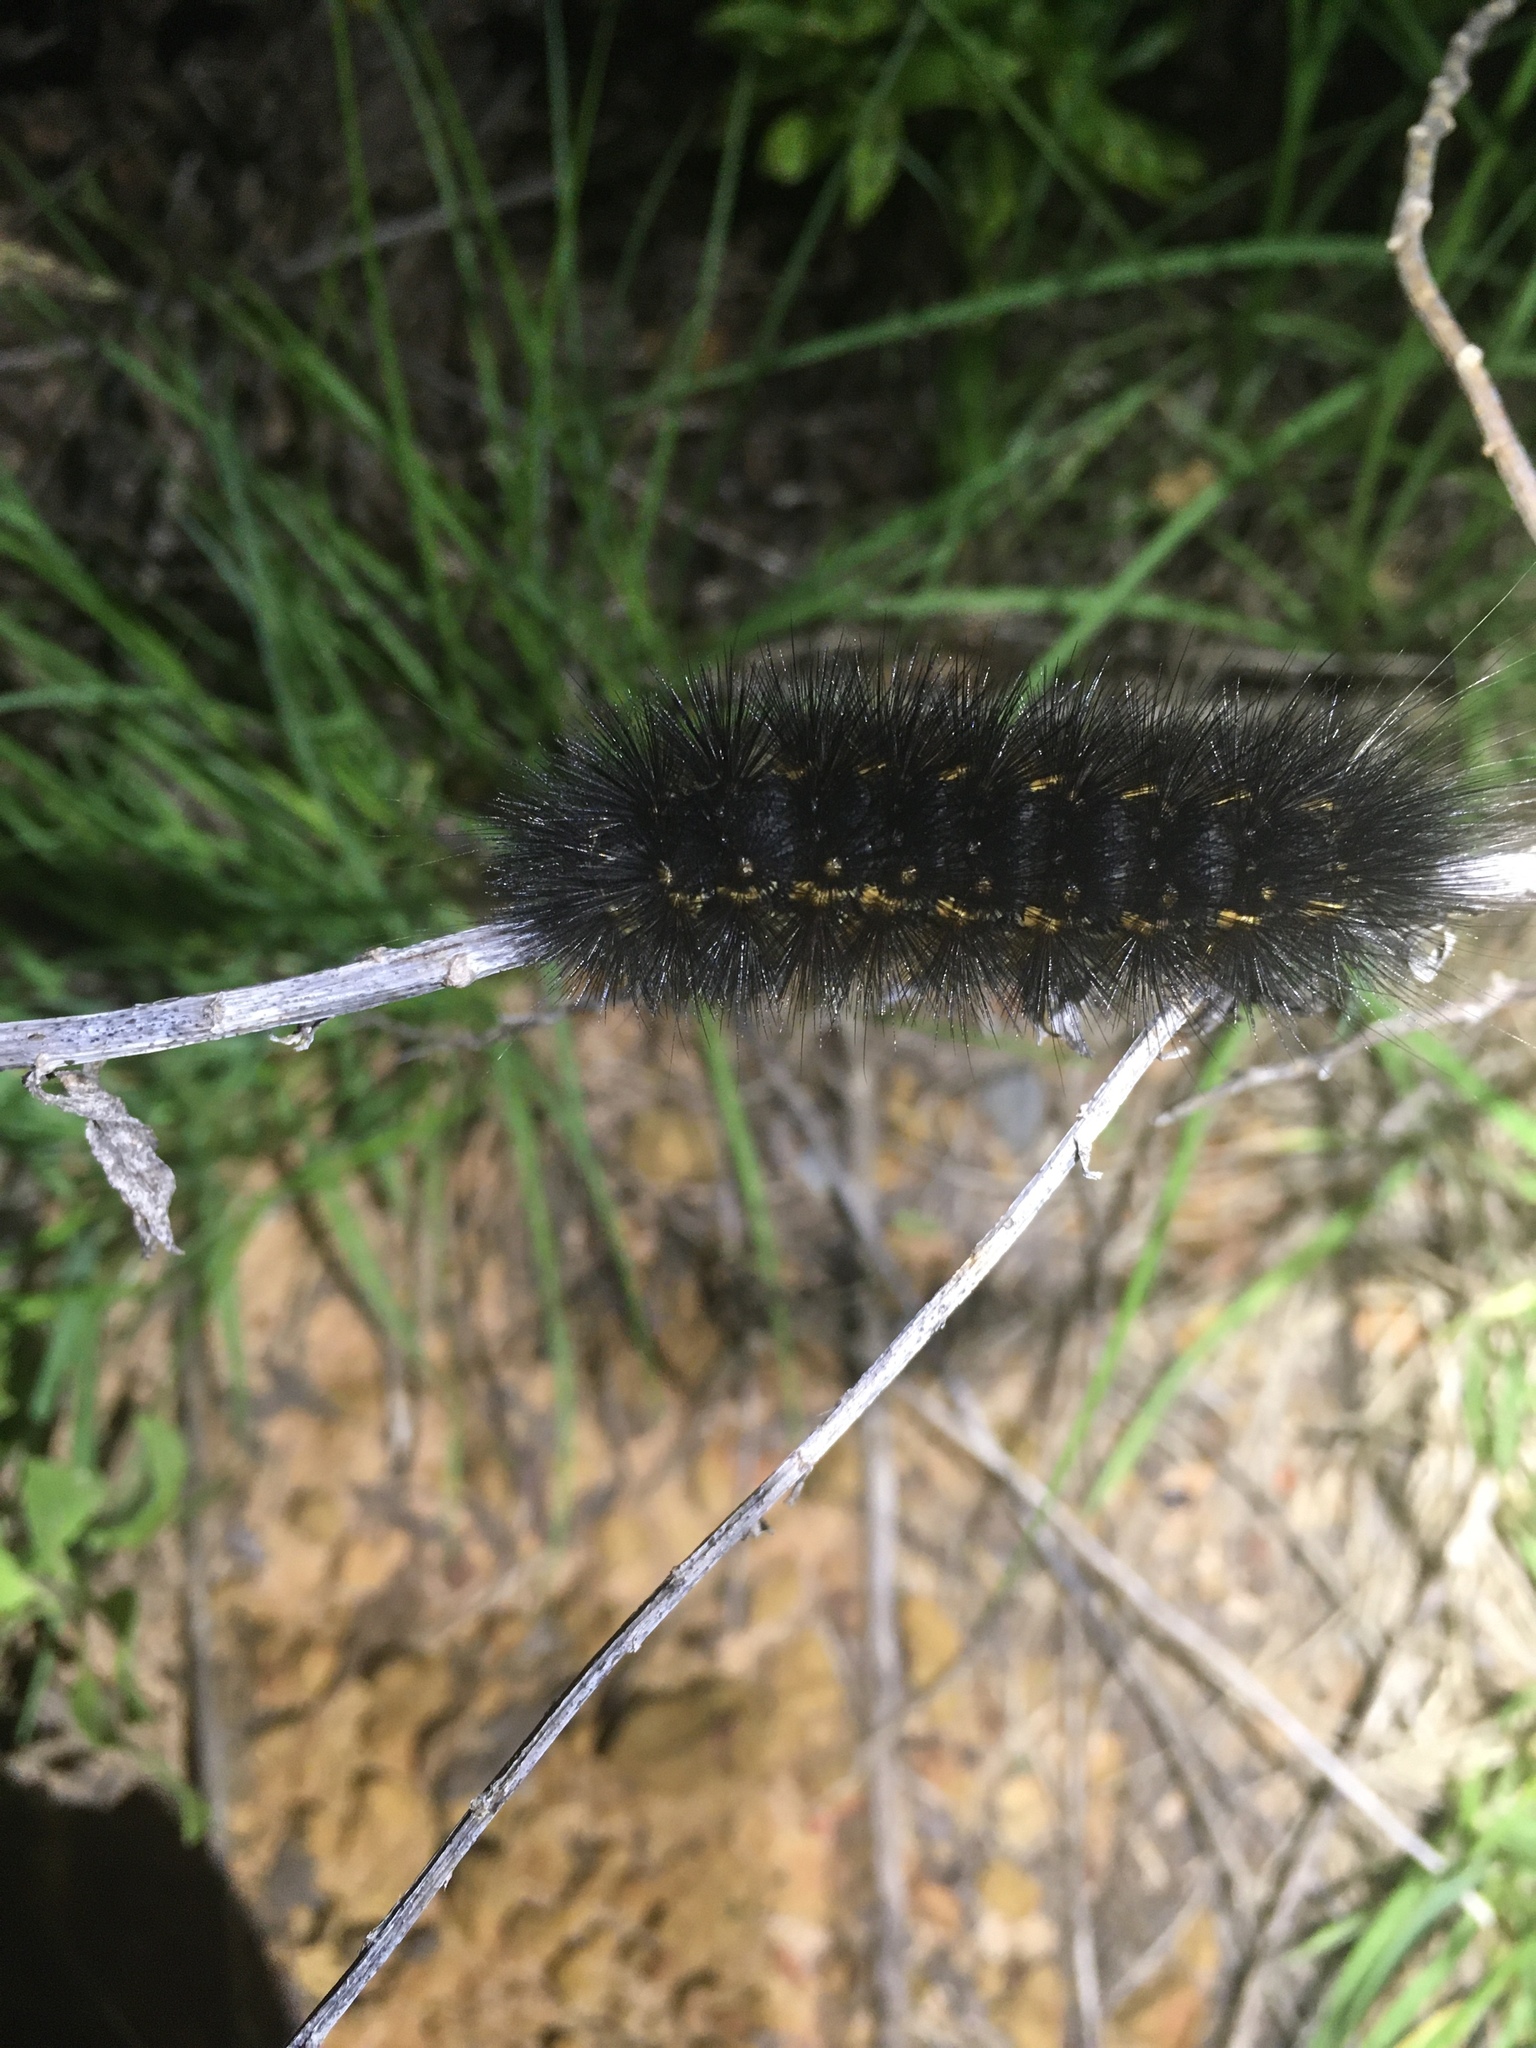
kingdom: Animalia
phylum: Arthropoda
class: Insecta
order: Lepidoptera
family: Erebidae
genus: Estigmene
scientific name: Estigmene acrea
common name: Salt marsh moth
